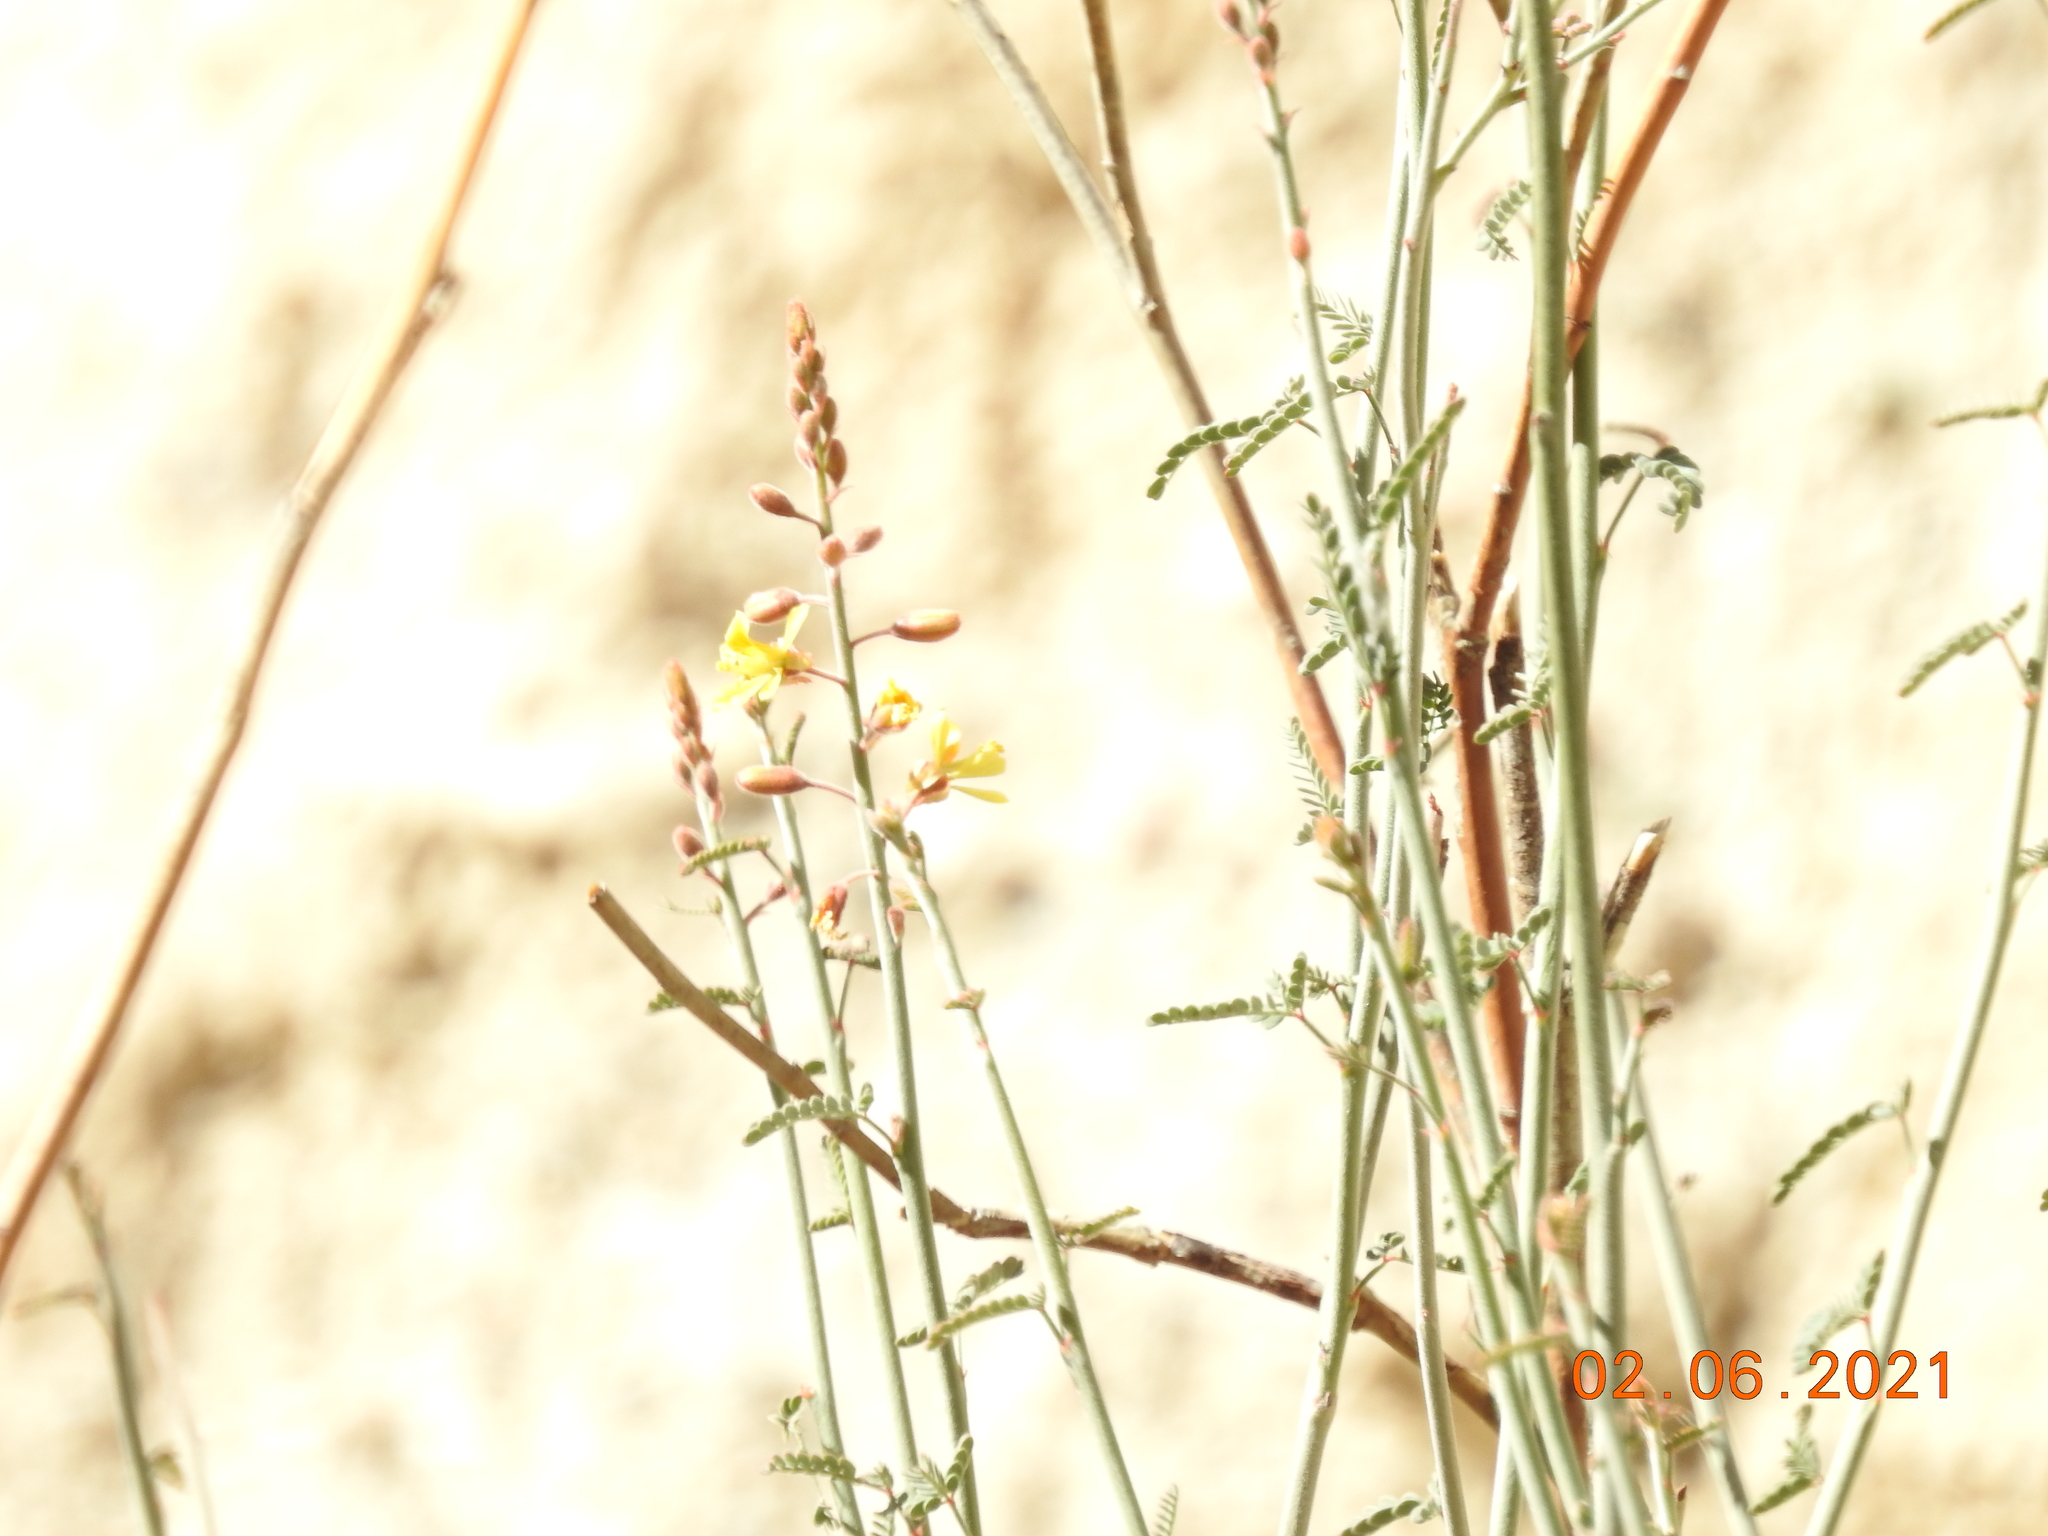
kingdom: Plantae
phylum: Tracheophyta
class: Magnoliopsida
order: Fabales
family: Fabaceae
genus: Hoffmannseggia
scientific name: Hoffmannseggia microphylla
